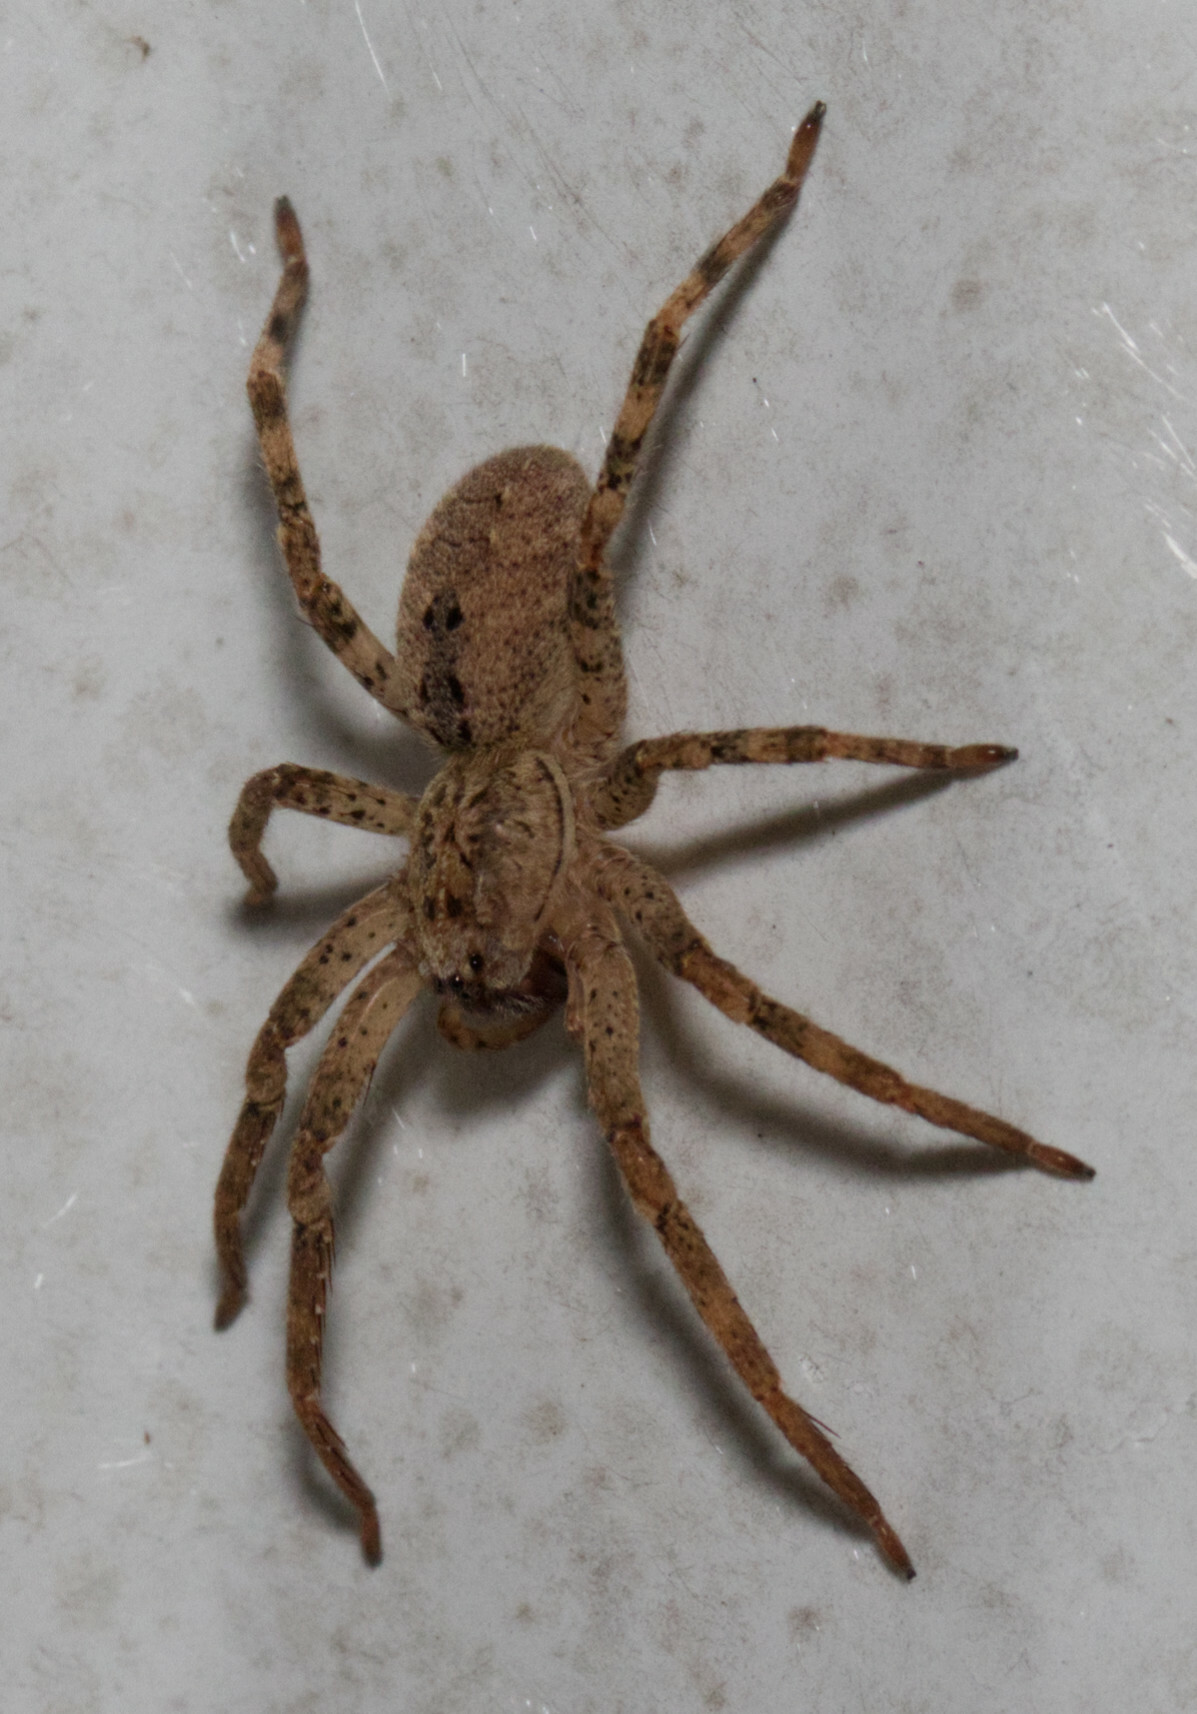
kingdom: Animalia
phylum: Arthropoda
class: Arachnida
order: Araneae
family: Zoropsidae
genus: Zoropsis
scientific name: Zoropsis spinimana
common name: Zoropsid spider
